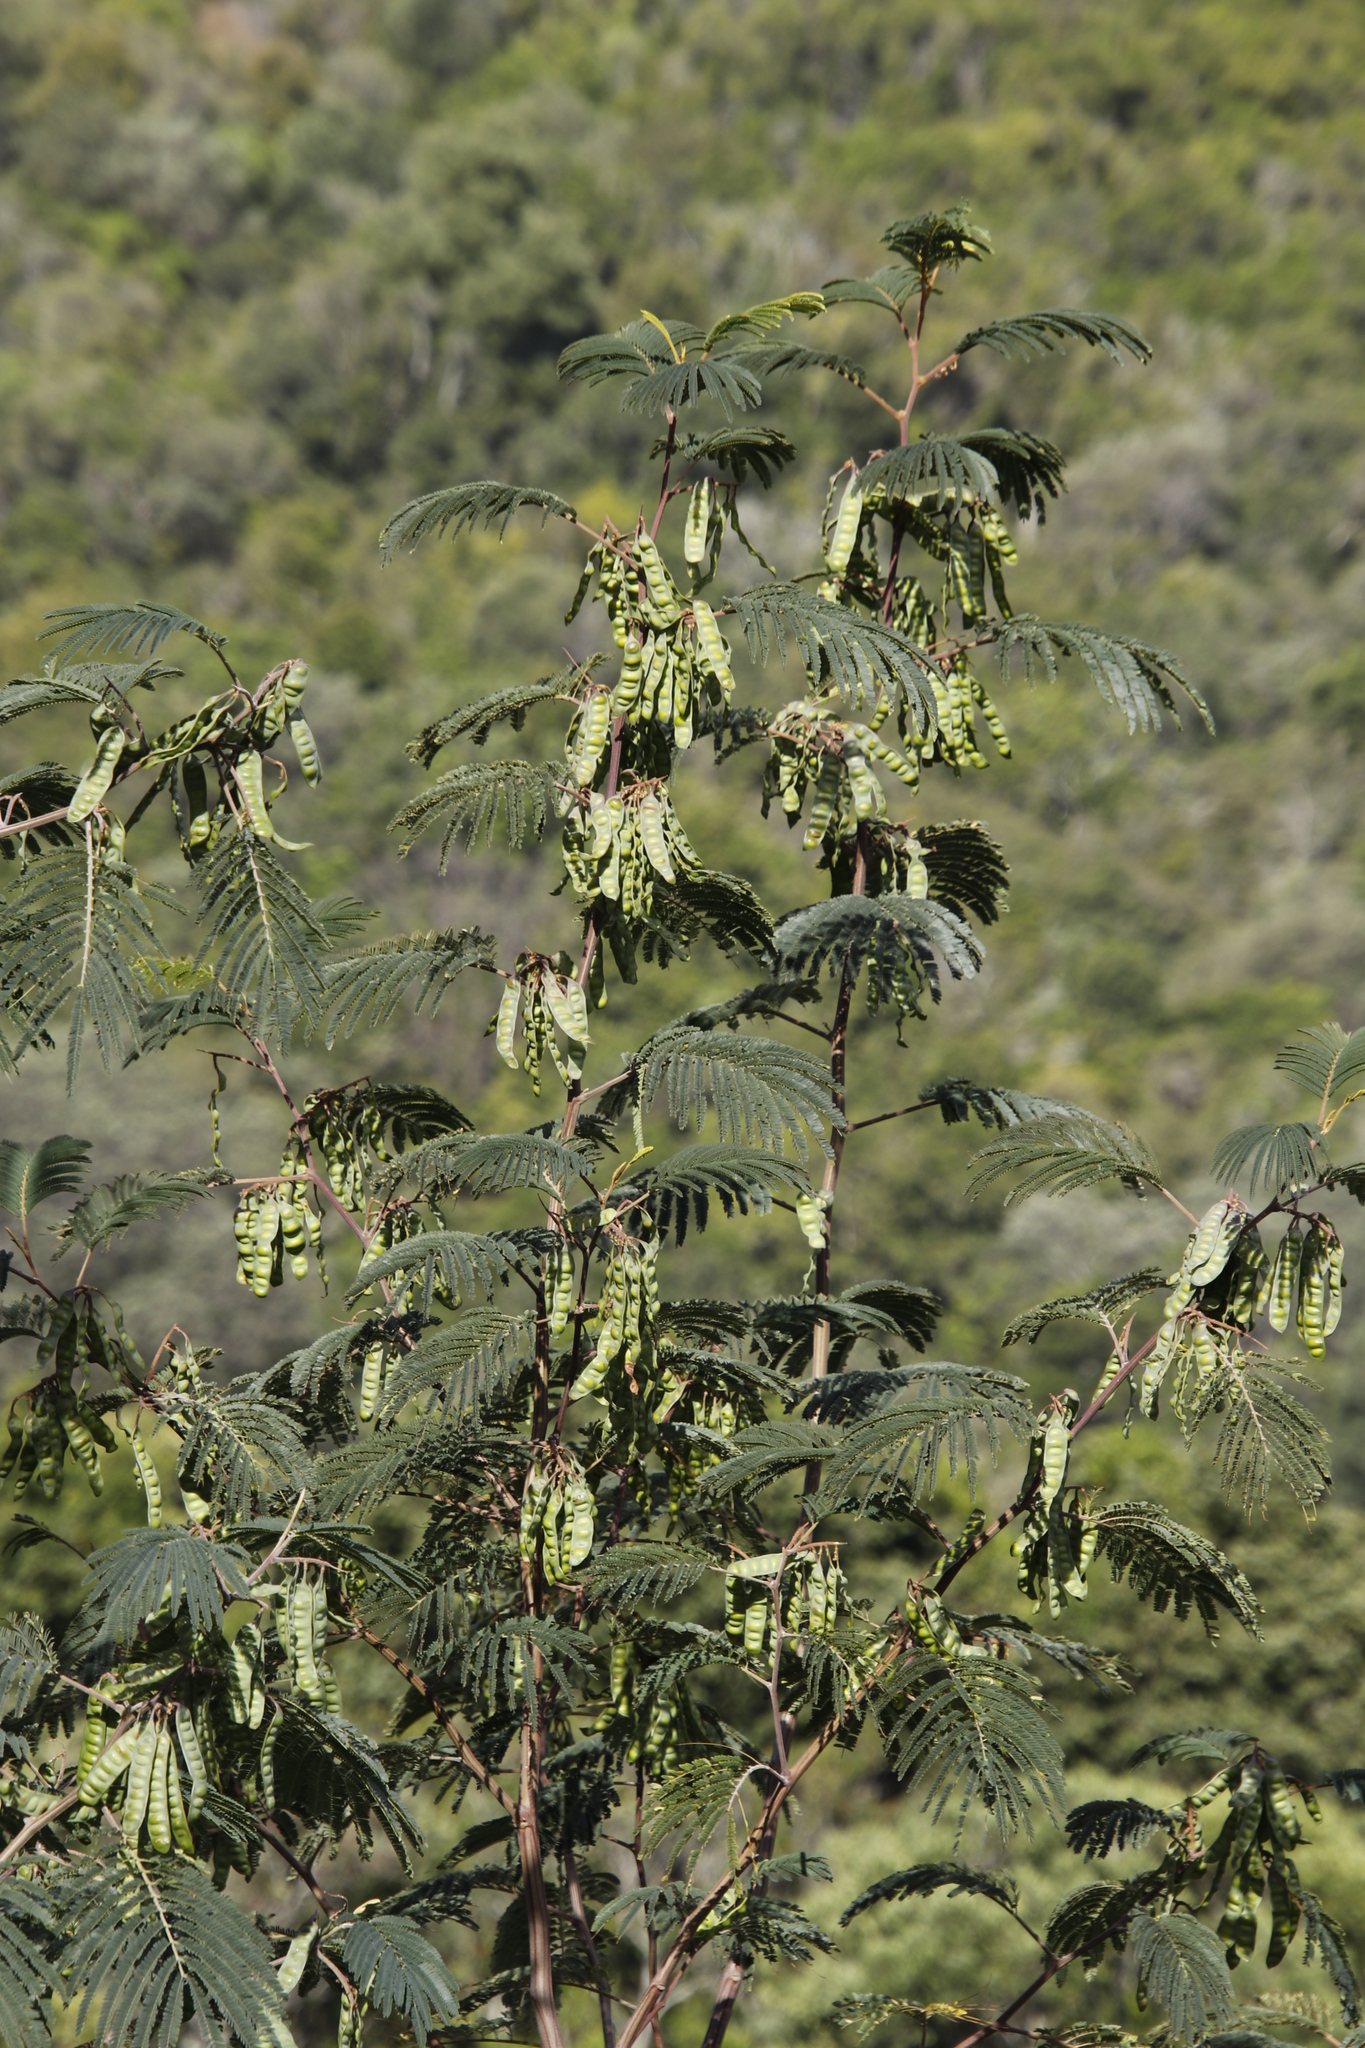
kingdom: Plantae
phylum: Tracheophyta
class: Magnoliopsida
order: Fabales
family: Fabaceae
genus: Paraserianthes
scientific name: Paraserianthes lophantha
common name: Plume albizia
